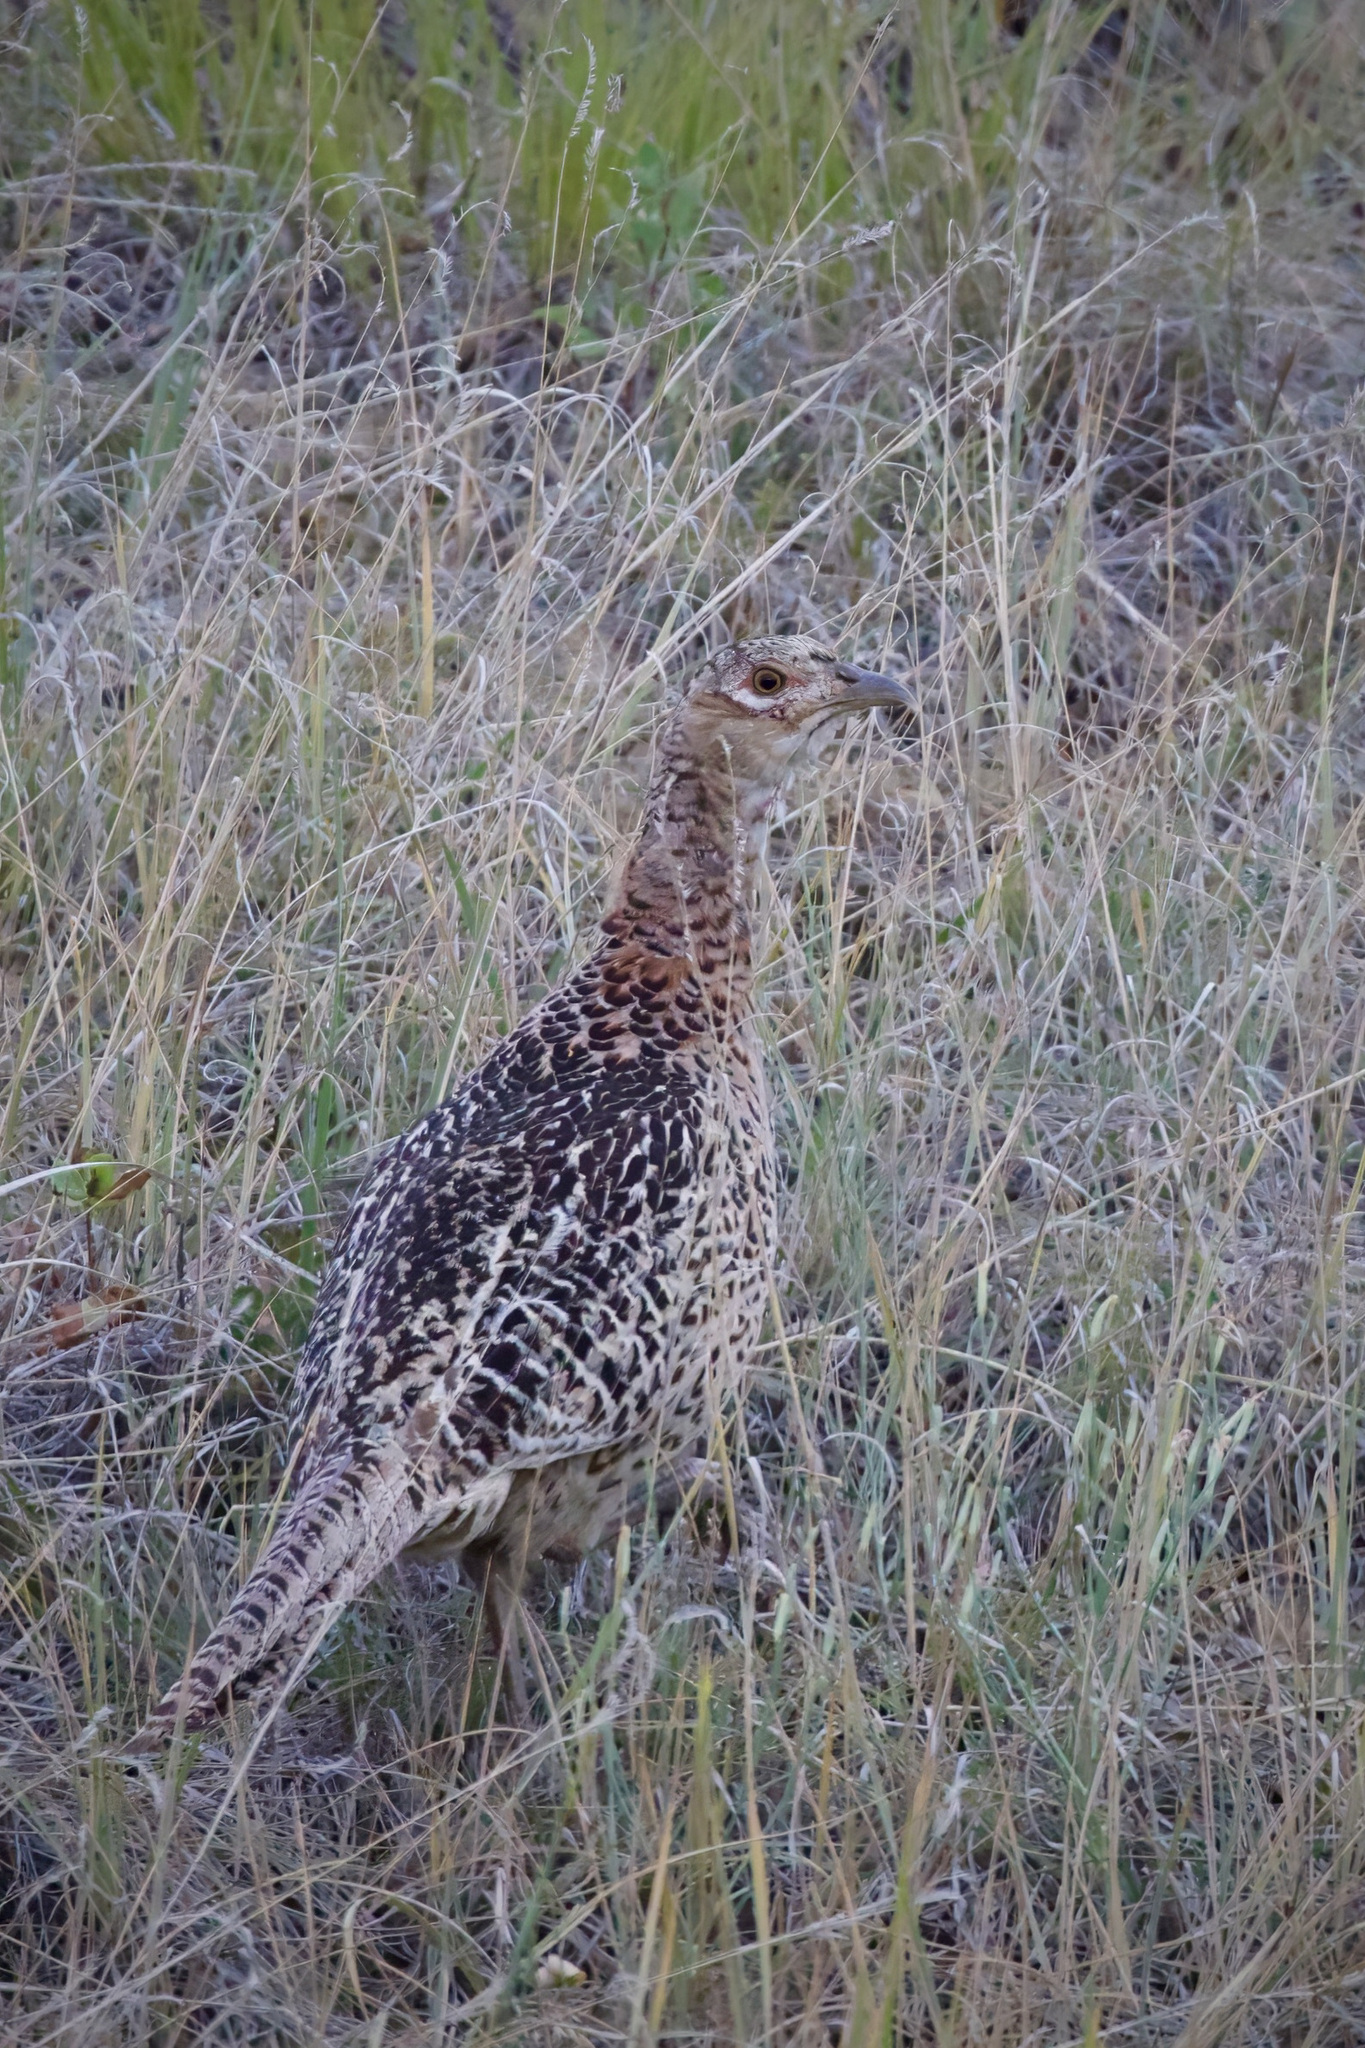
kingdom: Animalia
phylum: Chordata
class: Aves
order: Galliformes
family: Phasianidae
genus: Phasianus
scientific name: Phasianus colchicus
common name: Common pheasant
